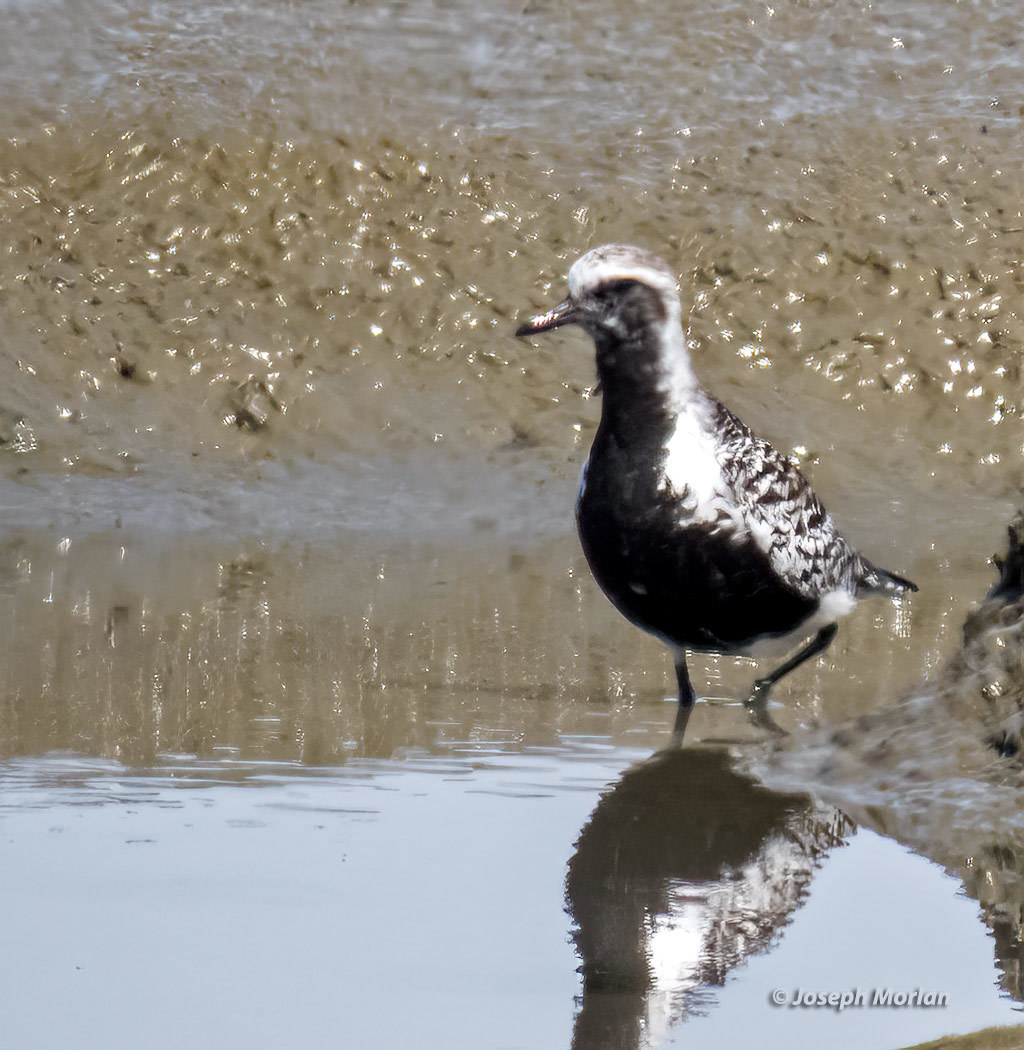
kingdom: Animalia
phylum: Chordata
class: Aves
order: Charadriiformes
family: Charadriidae
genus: Pluvialis
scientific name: Pluvialis squatarola
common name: Grey plover
